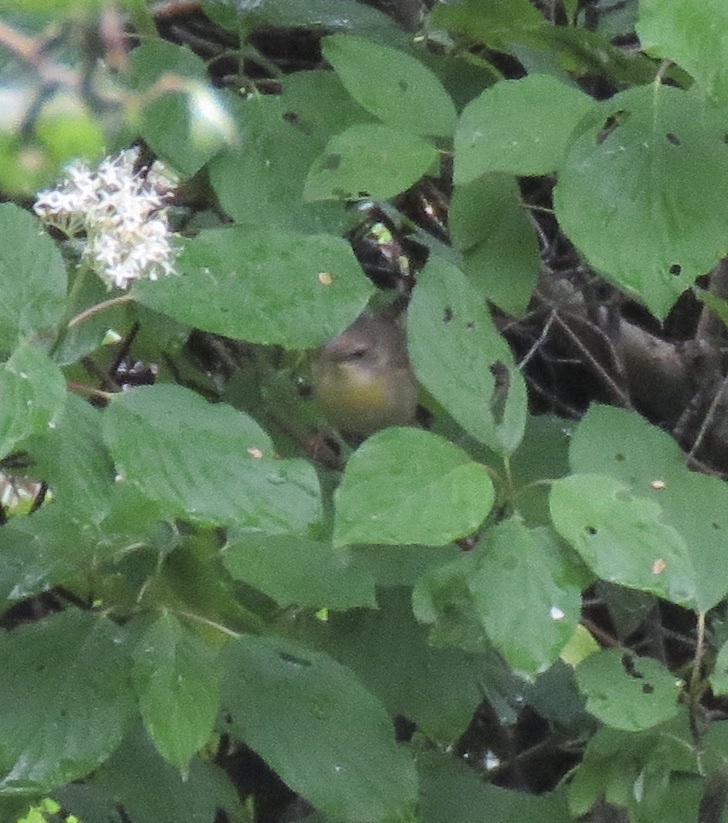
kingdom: Animalia
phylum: Chordata
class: Aves
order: Passeriformes
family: Parulidae
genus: Geothlypis
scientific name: Geothlypis trichas
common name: Common yellowthroat
